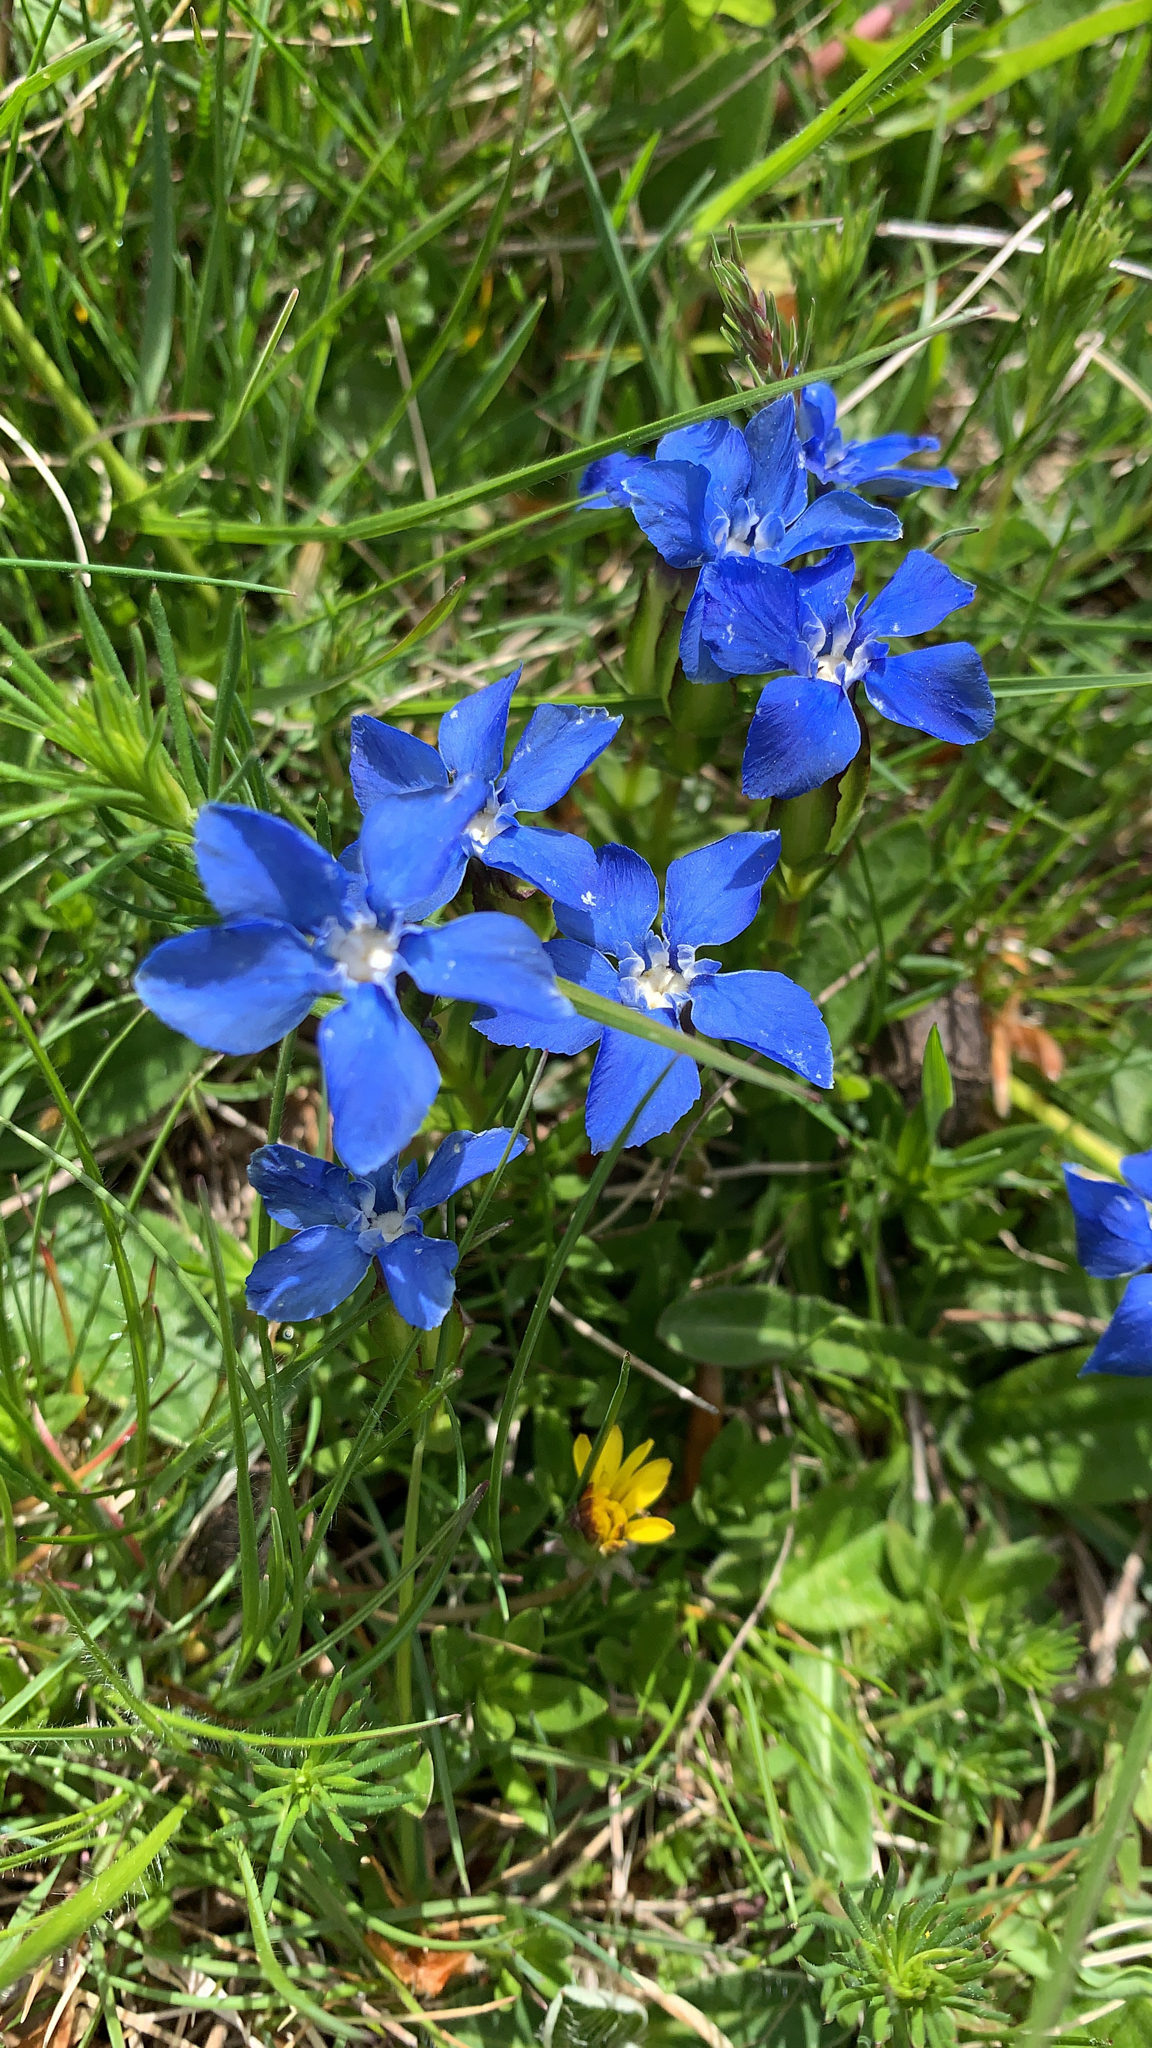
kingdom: Plantae
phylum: Tracheophyta
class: Magnoliopsida
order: Gentianales
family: Gentianaceae
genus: Gentiana
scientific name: Gentiana verna
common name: Spring gentian
